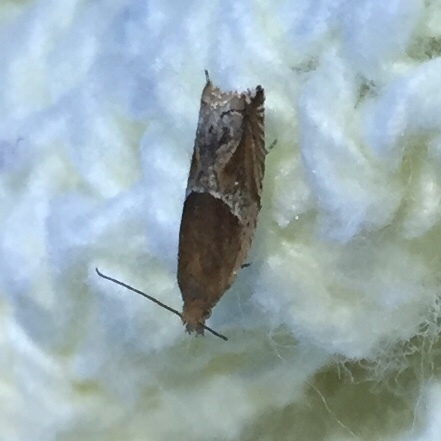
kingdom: Animalia
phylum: Arthropoda
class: Insecta
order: Lepidoptera
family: Tortricidae
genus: Ancylis
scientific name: Ancylis comptana
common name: Little roller
